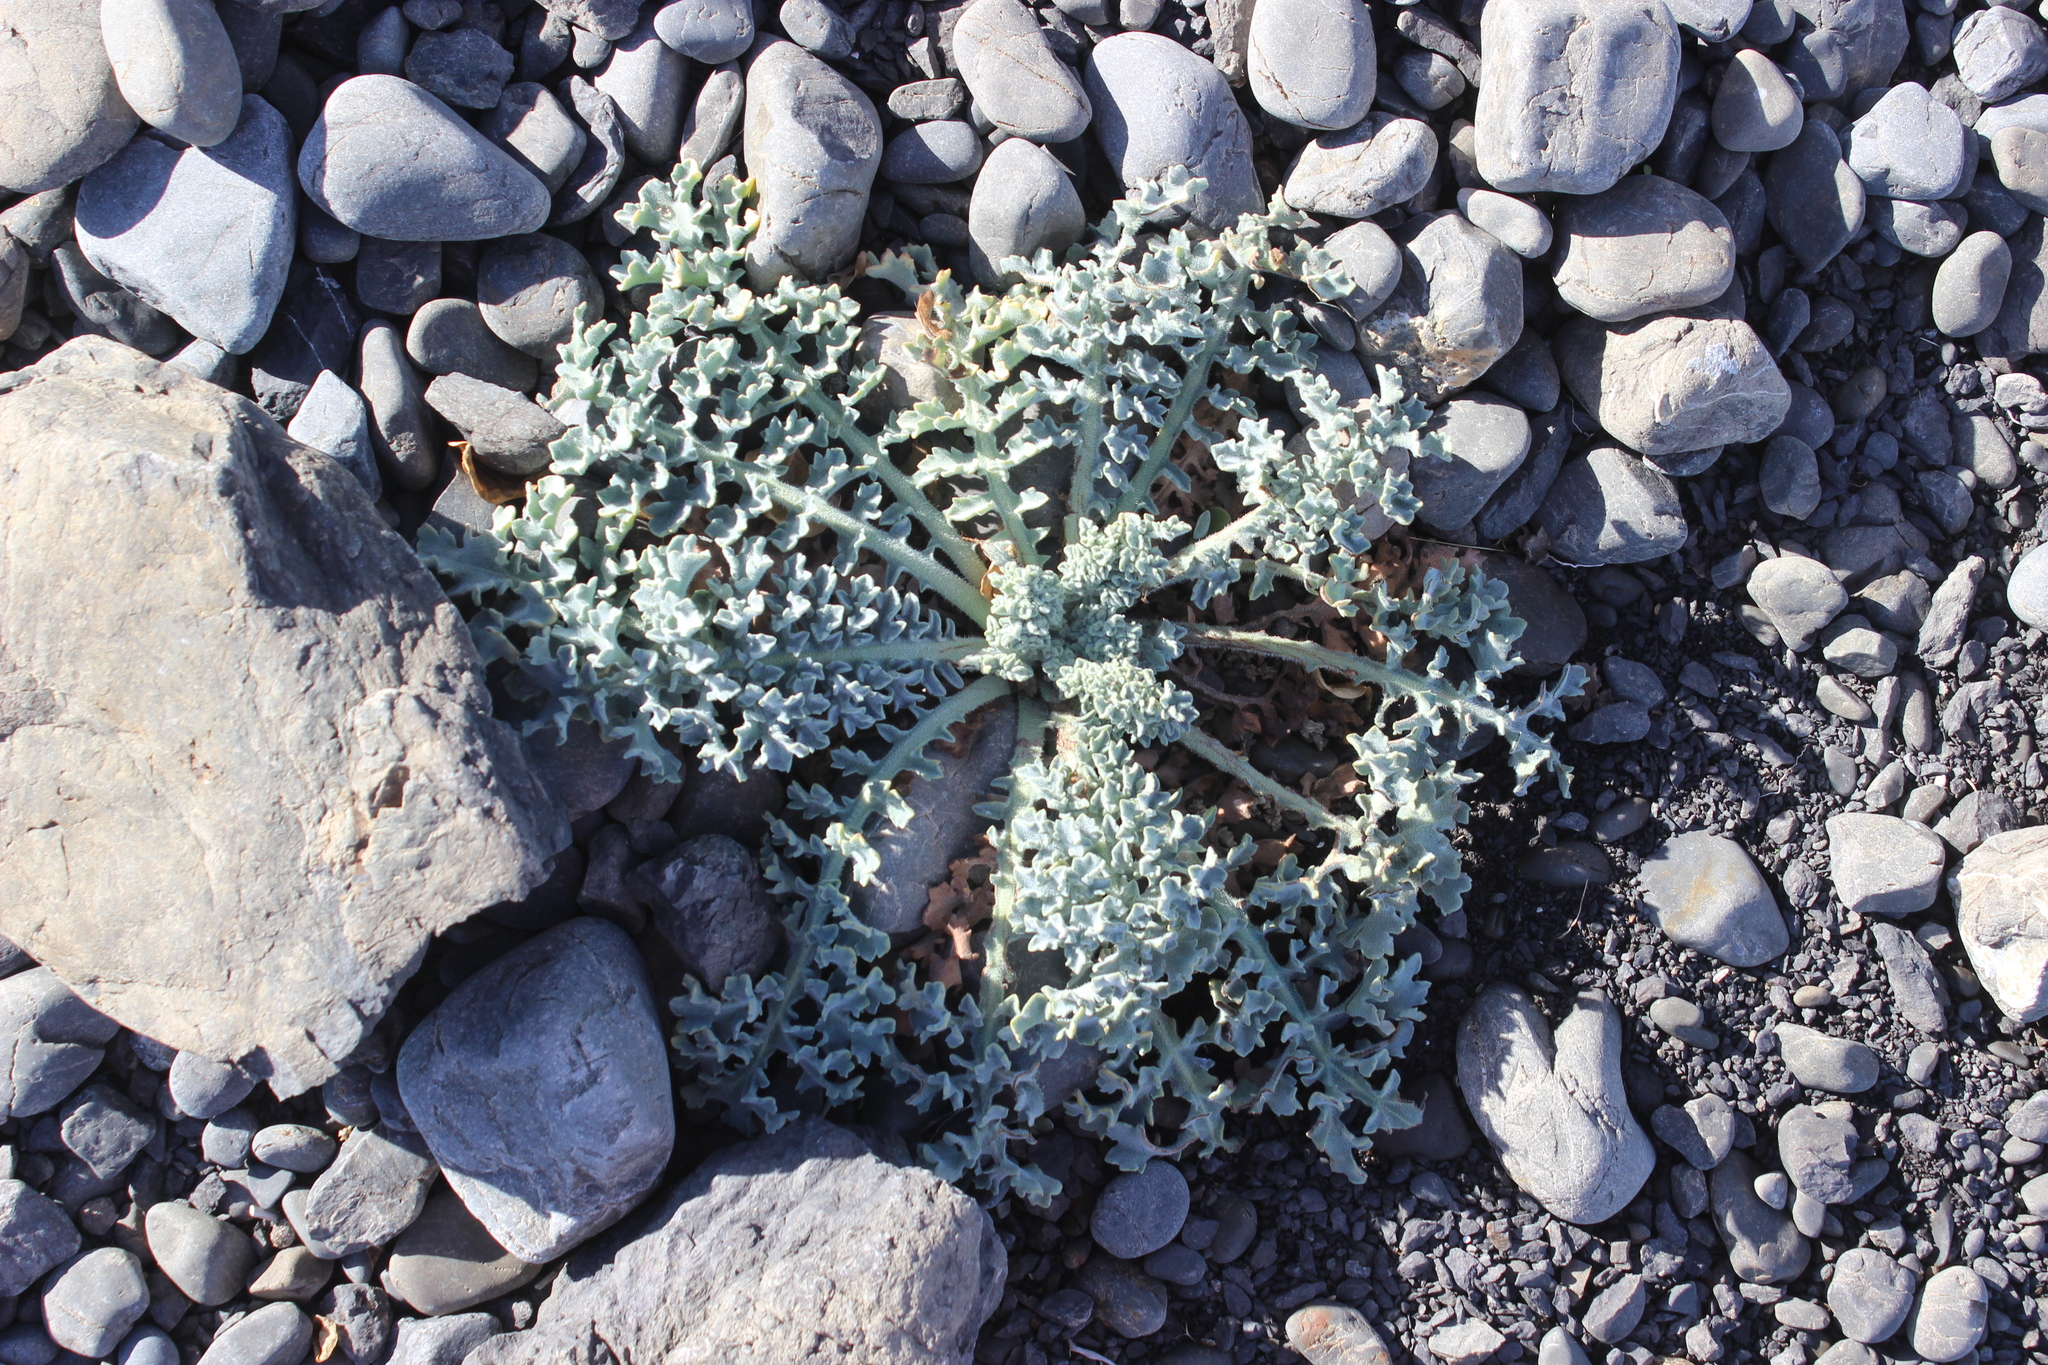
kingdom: Plantae
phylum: Tracheophyta
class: Magnoliopsida
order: Ranunculales
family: Papaveraceae
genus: Glaucium
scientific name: Glaucium flavum
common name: Yellow horned-poppy
